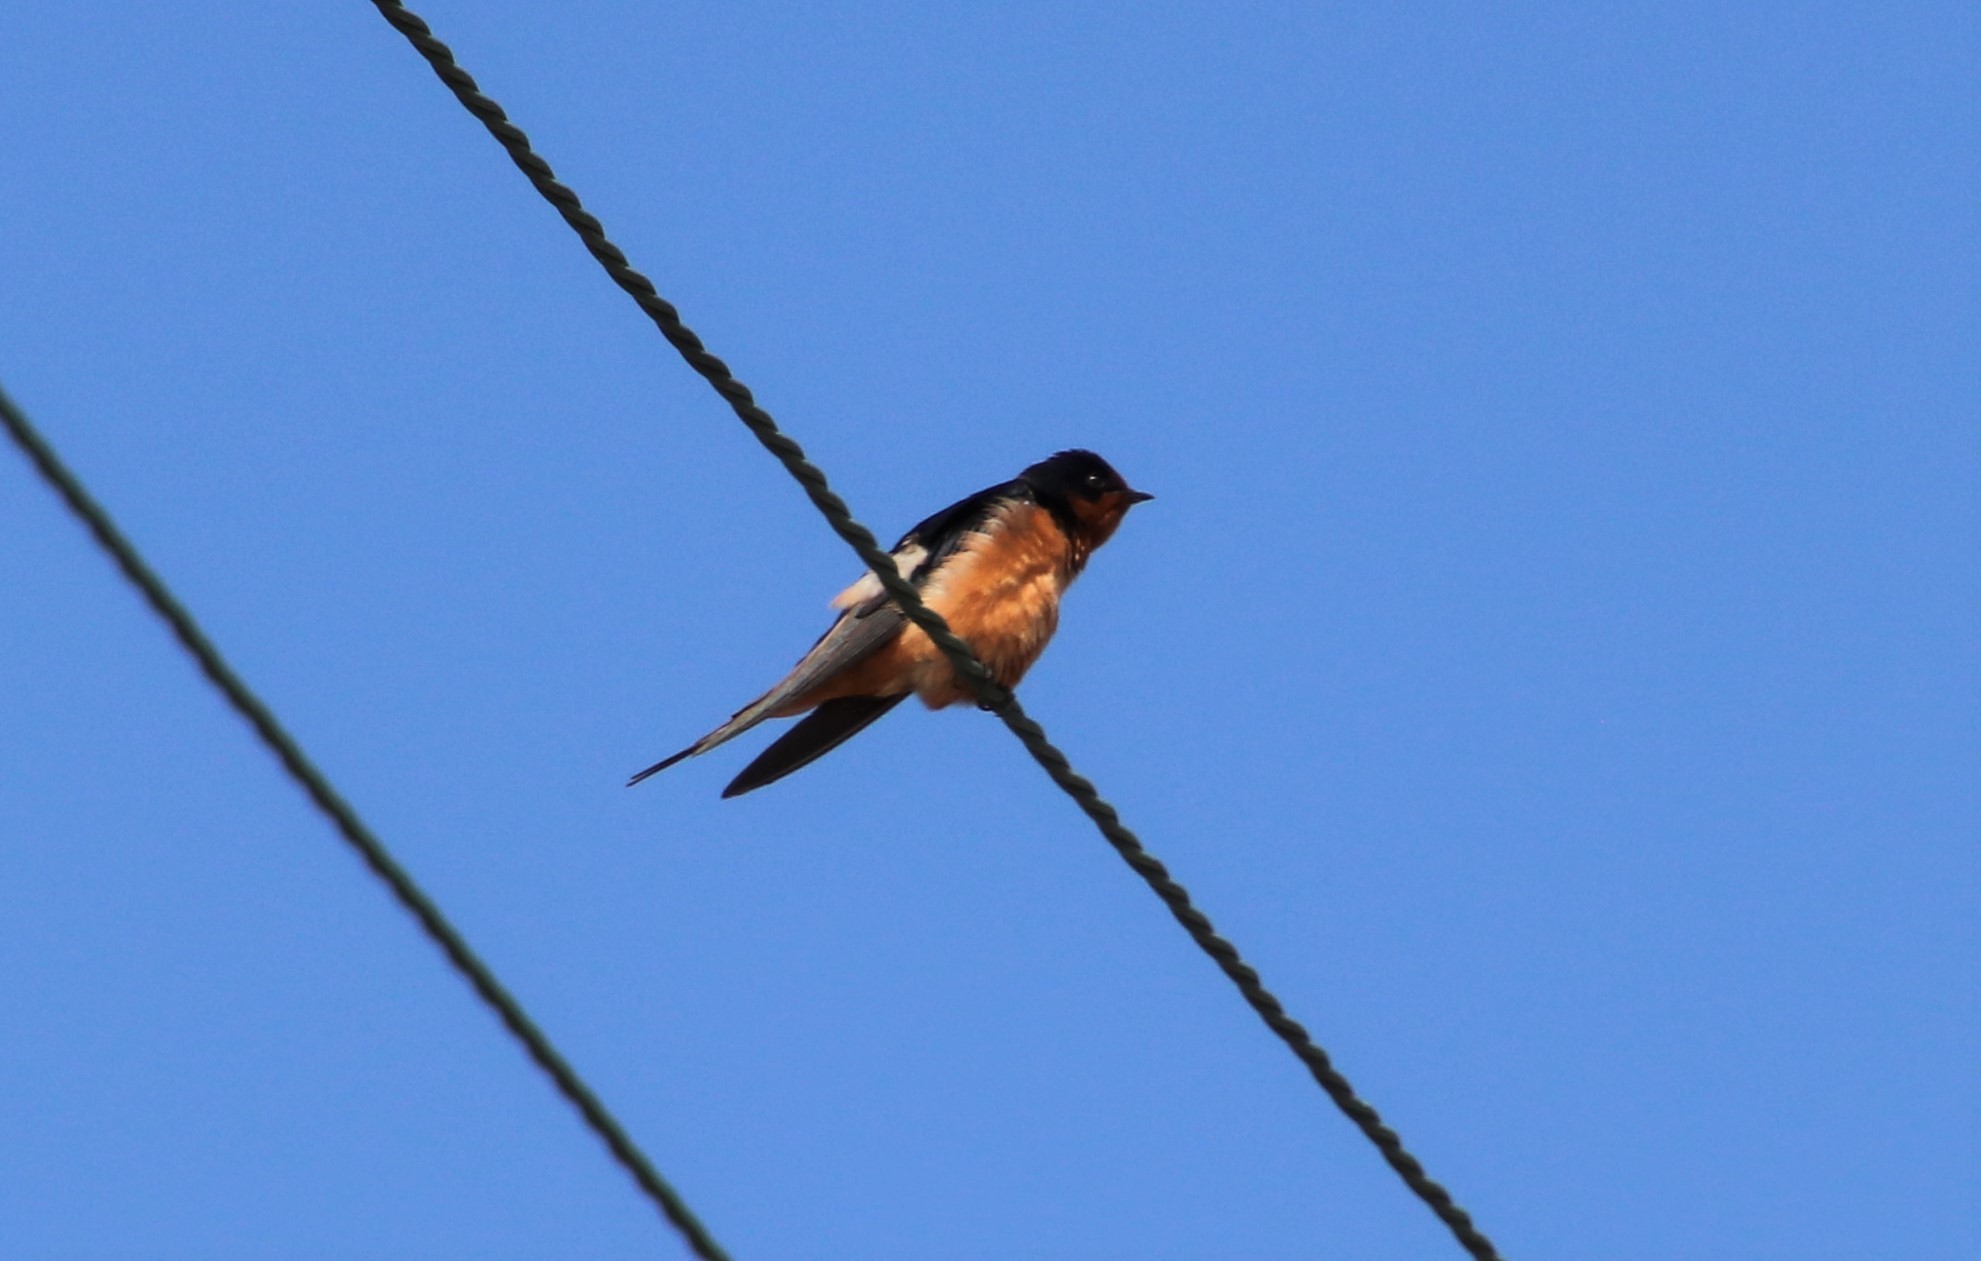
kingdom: Animalia
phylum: Chordata
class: Aves
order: Passeriformes
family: Hirundinidae
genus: Hirundo
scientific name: Hirundo rustica
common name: Barn swallow
